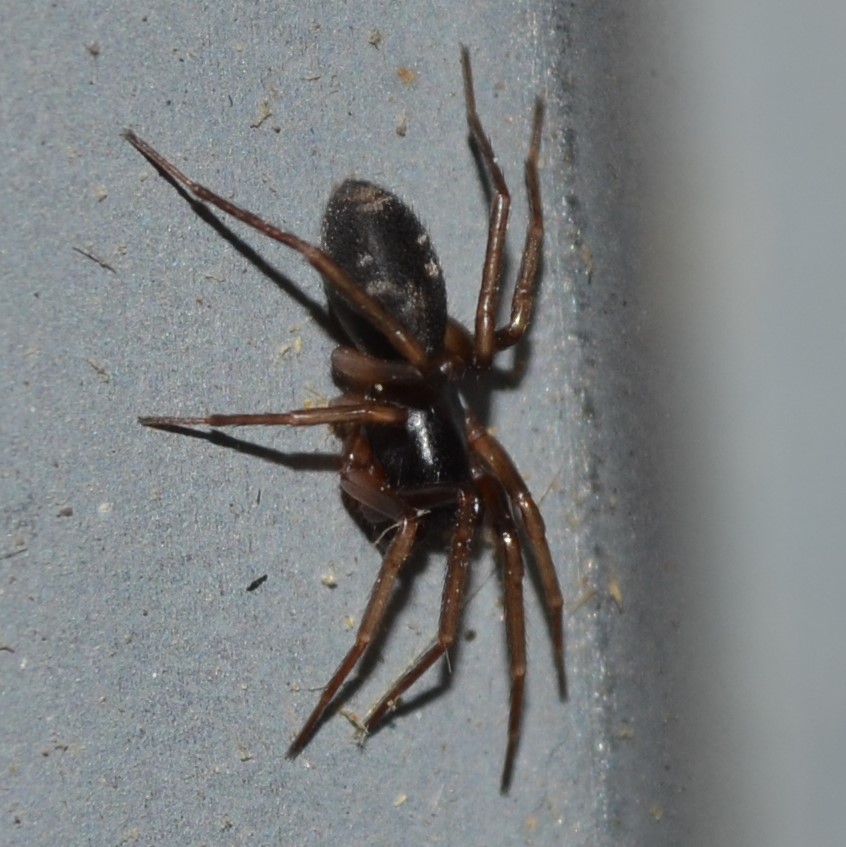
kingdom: Animalia
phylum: Arthropoda
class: Arachnida
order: Araneae
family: Corinnidae
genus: Falconina
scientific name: Falconina gracilis
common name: Antmimic spider
